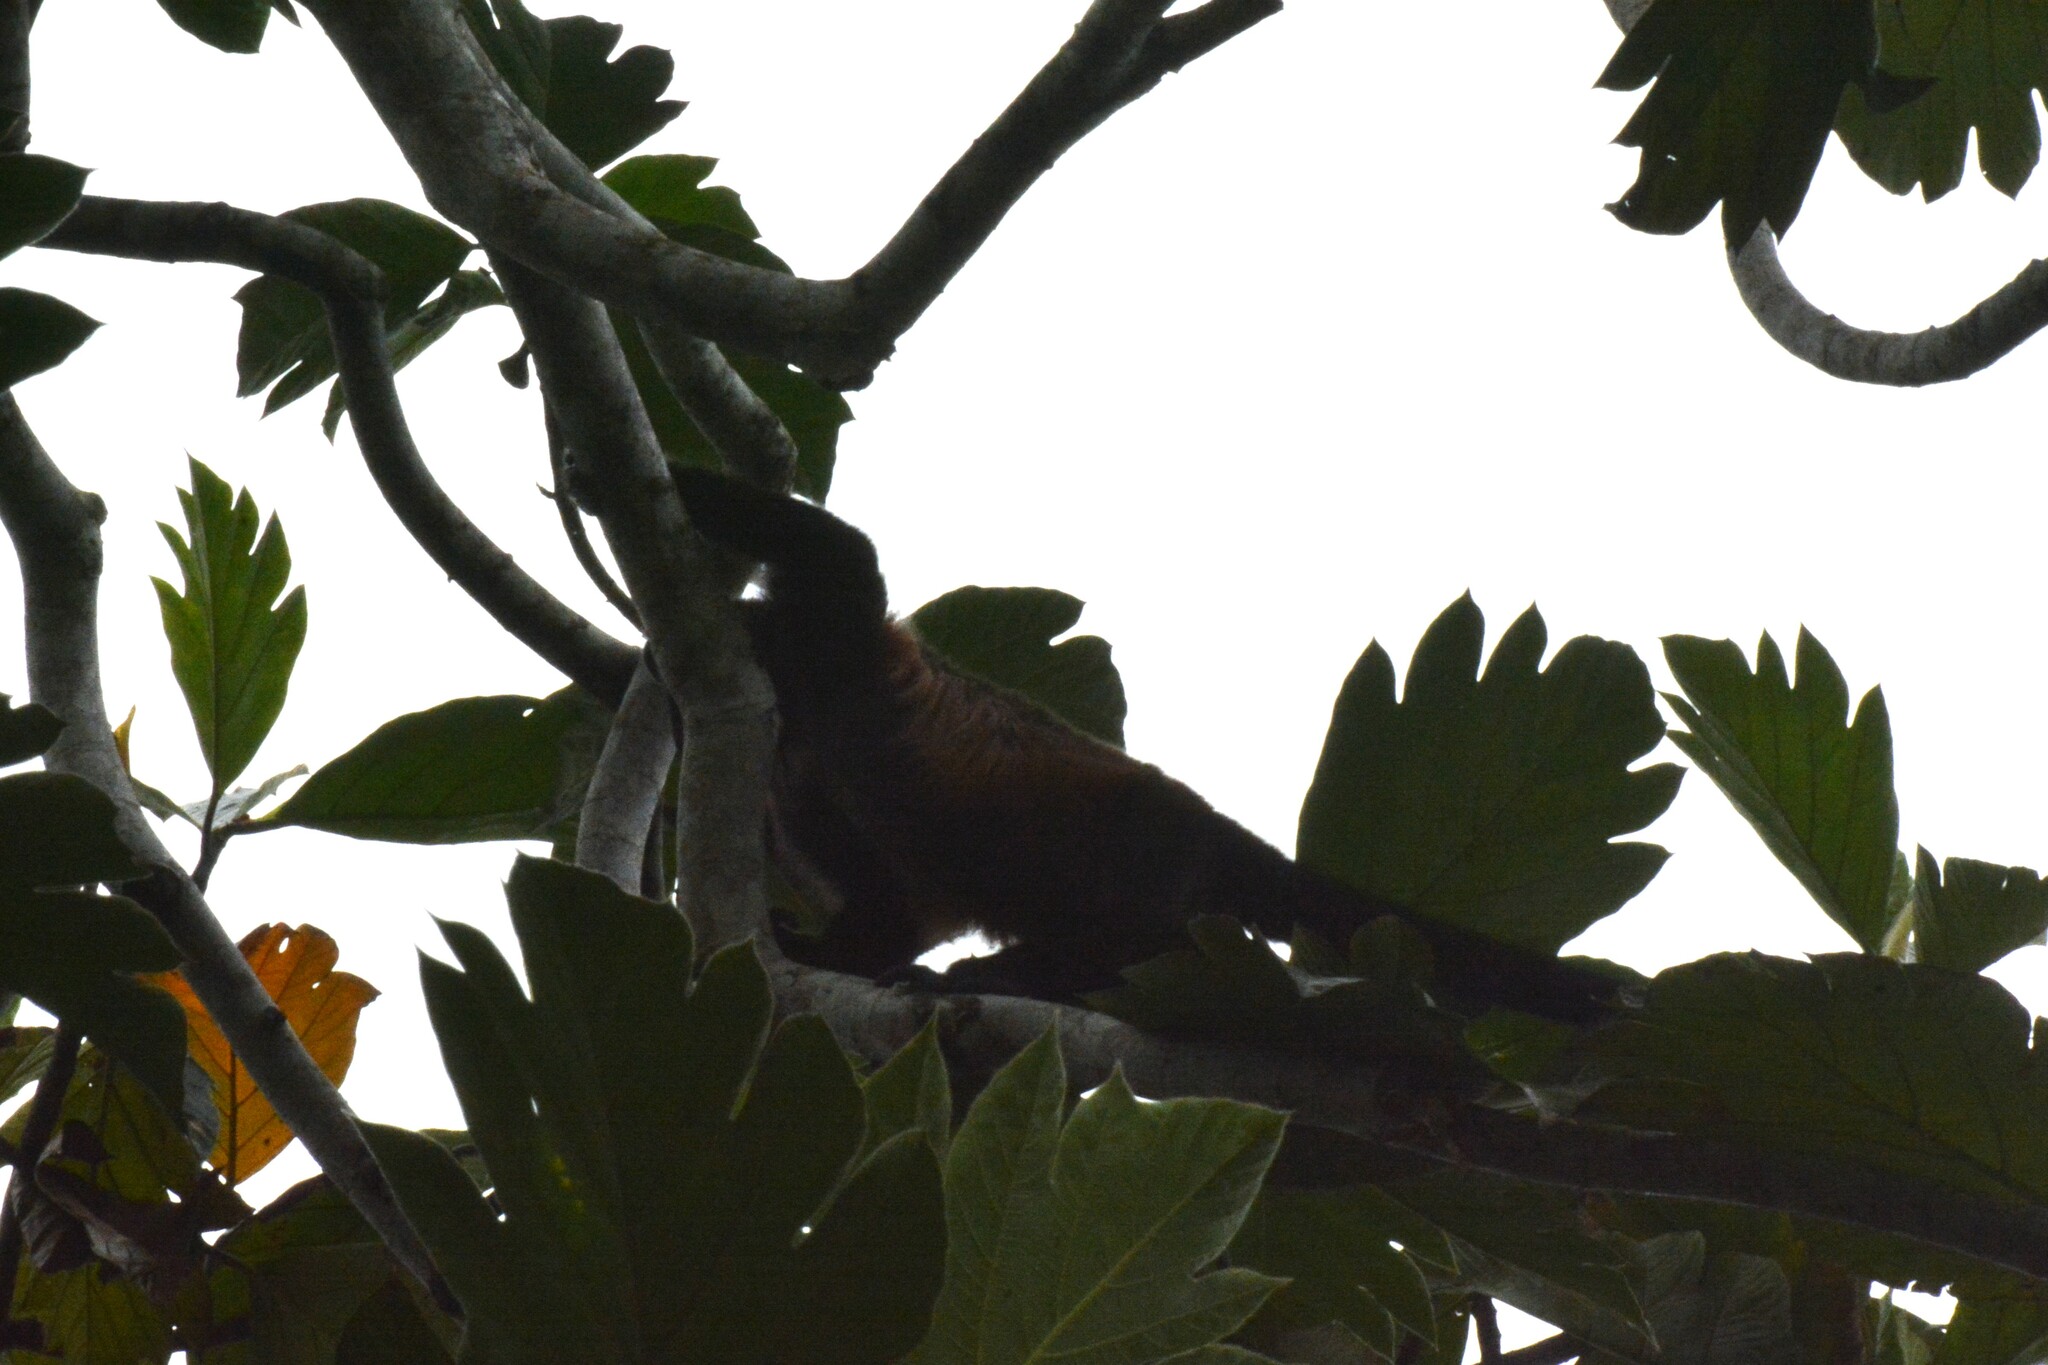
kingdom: Animalia
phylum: Chordata
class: Mammalia
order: Primates
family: Atelidae
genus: Alouatta
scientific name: Alouatta palliata
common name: Mantled howler
